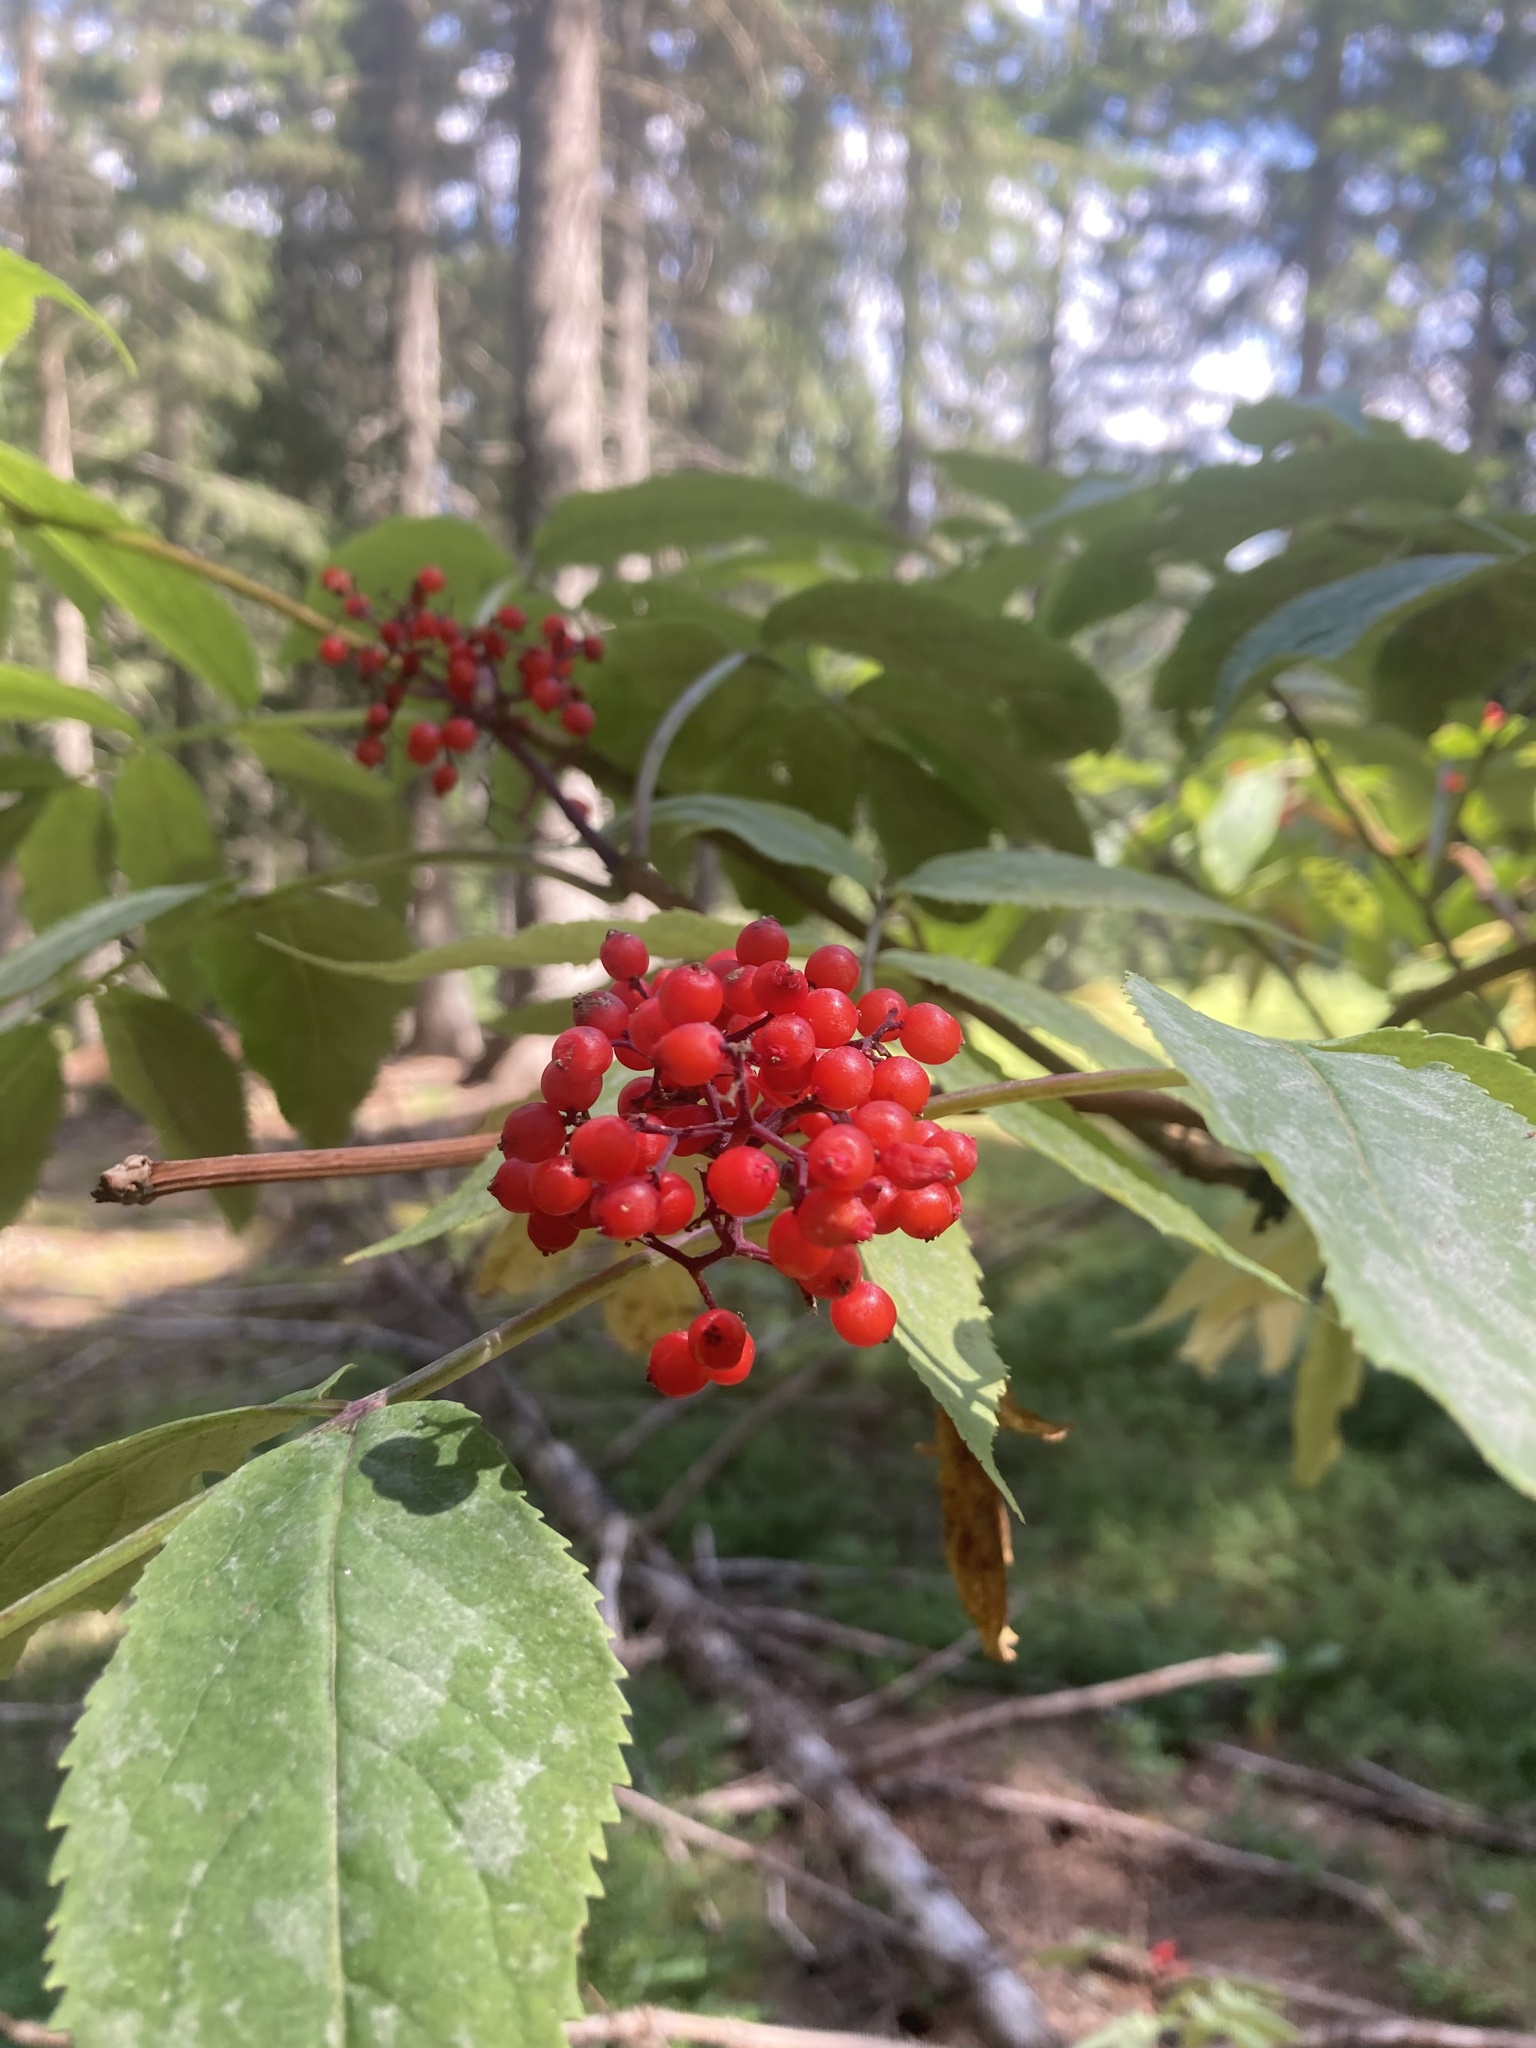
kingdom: Plantae
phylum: Tracheophyta
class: Magnoliopsida
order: Dipsacales
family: Viburnaceae
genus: Sambucus
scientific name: Sambucus racemosa
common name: Red-berried elder
